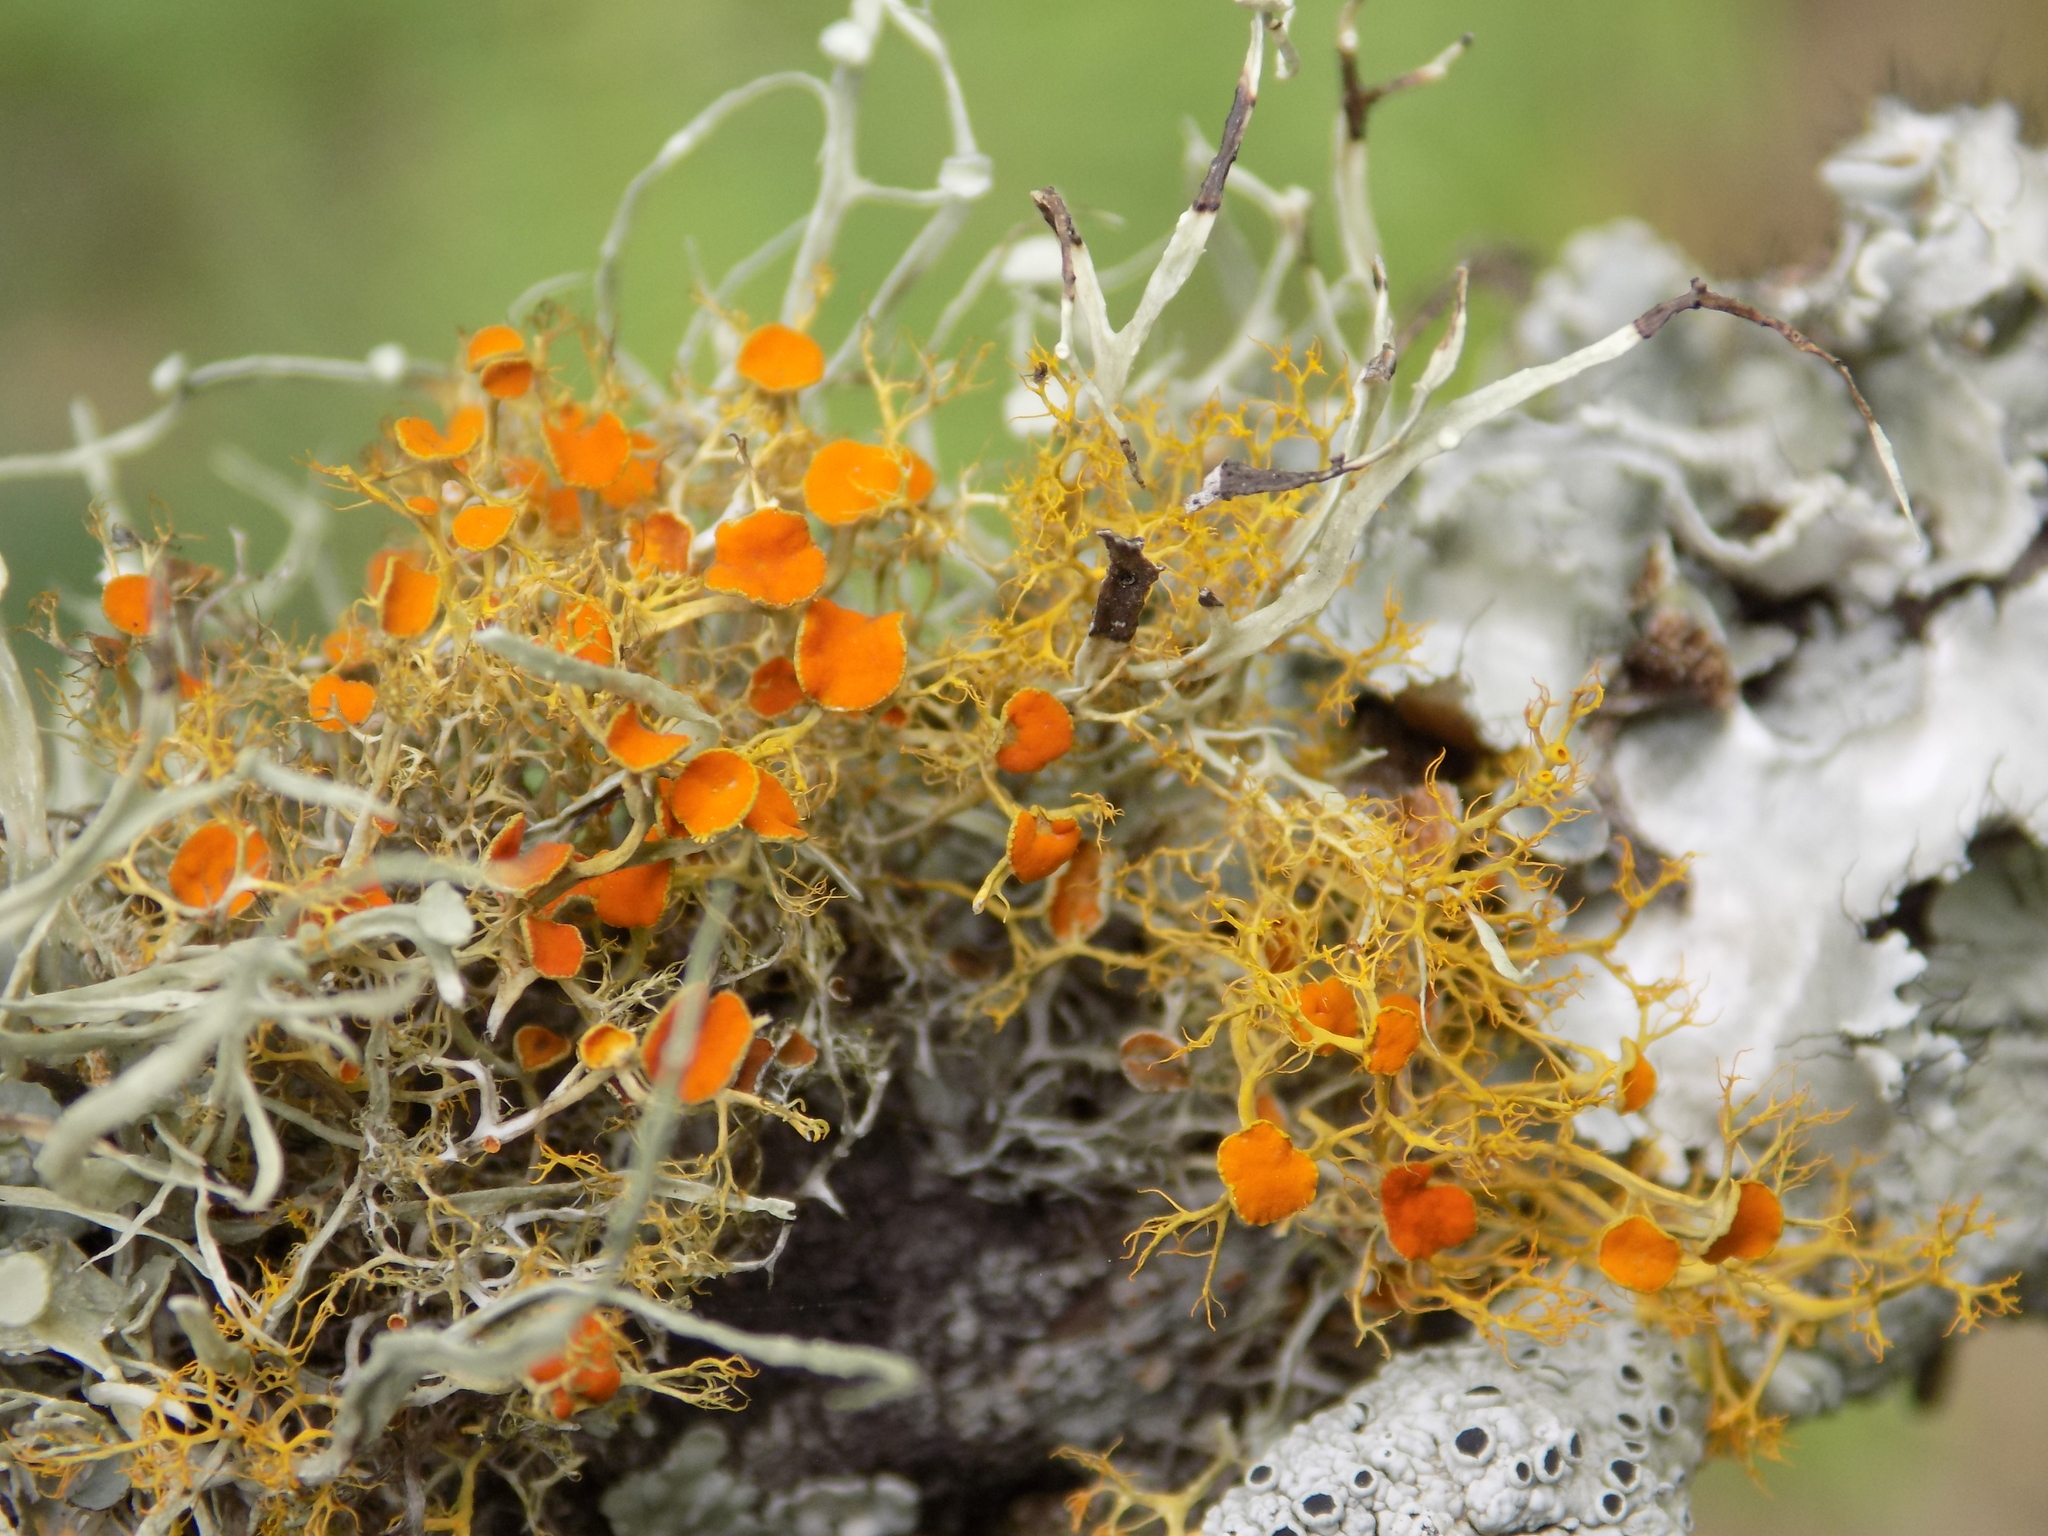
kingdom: Fungi
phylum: Ascomycota
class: Lecanoromycetes
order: Teloschistales
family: Teloschistaceae
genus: Teloschistes
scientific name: Teloschistes exilis
